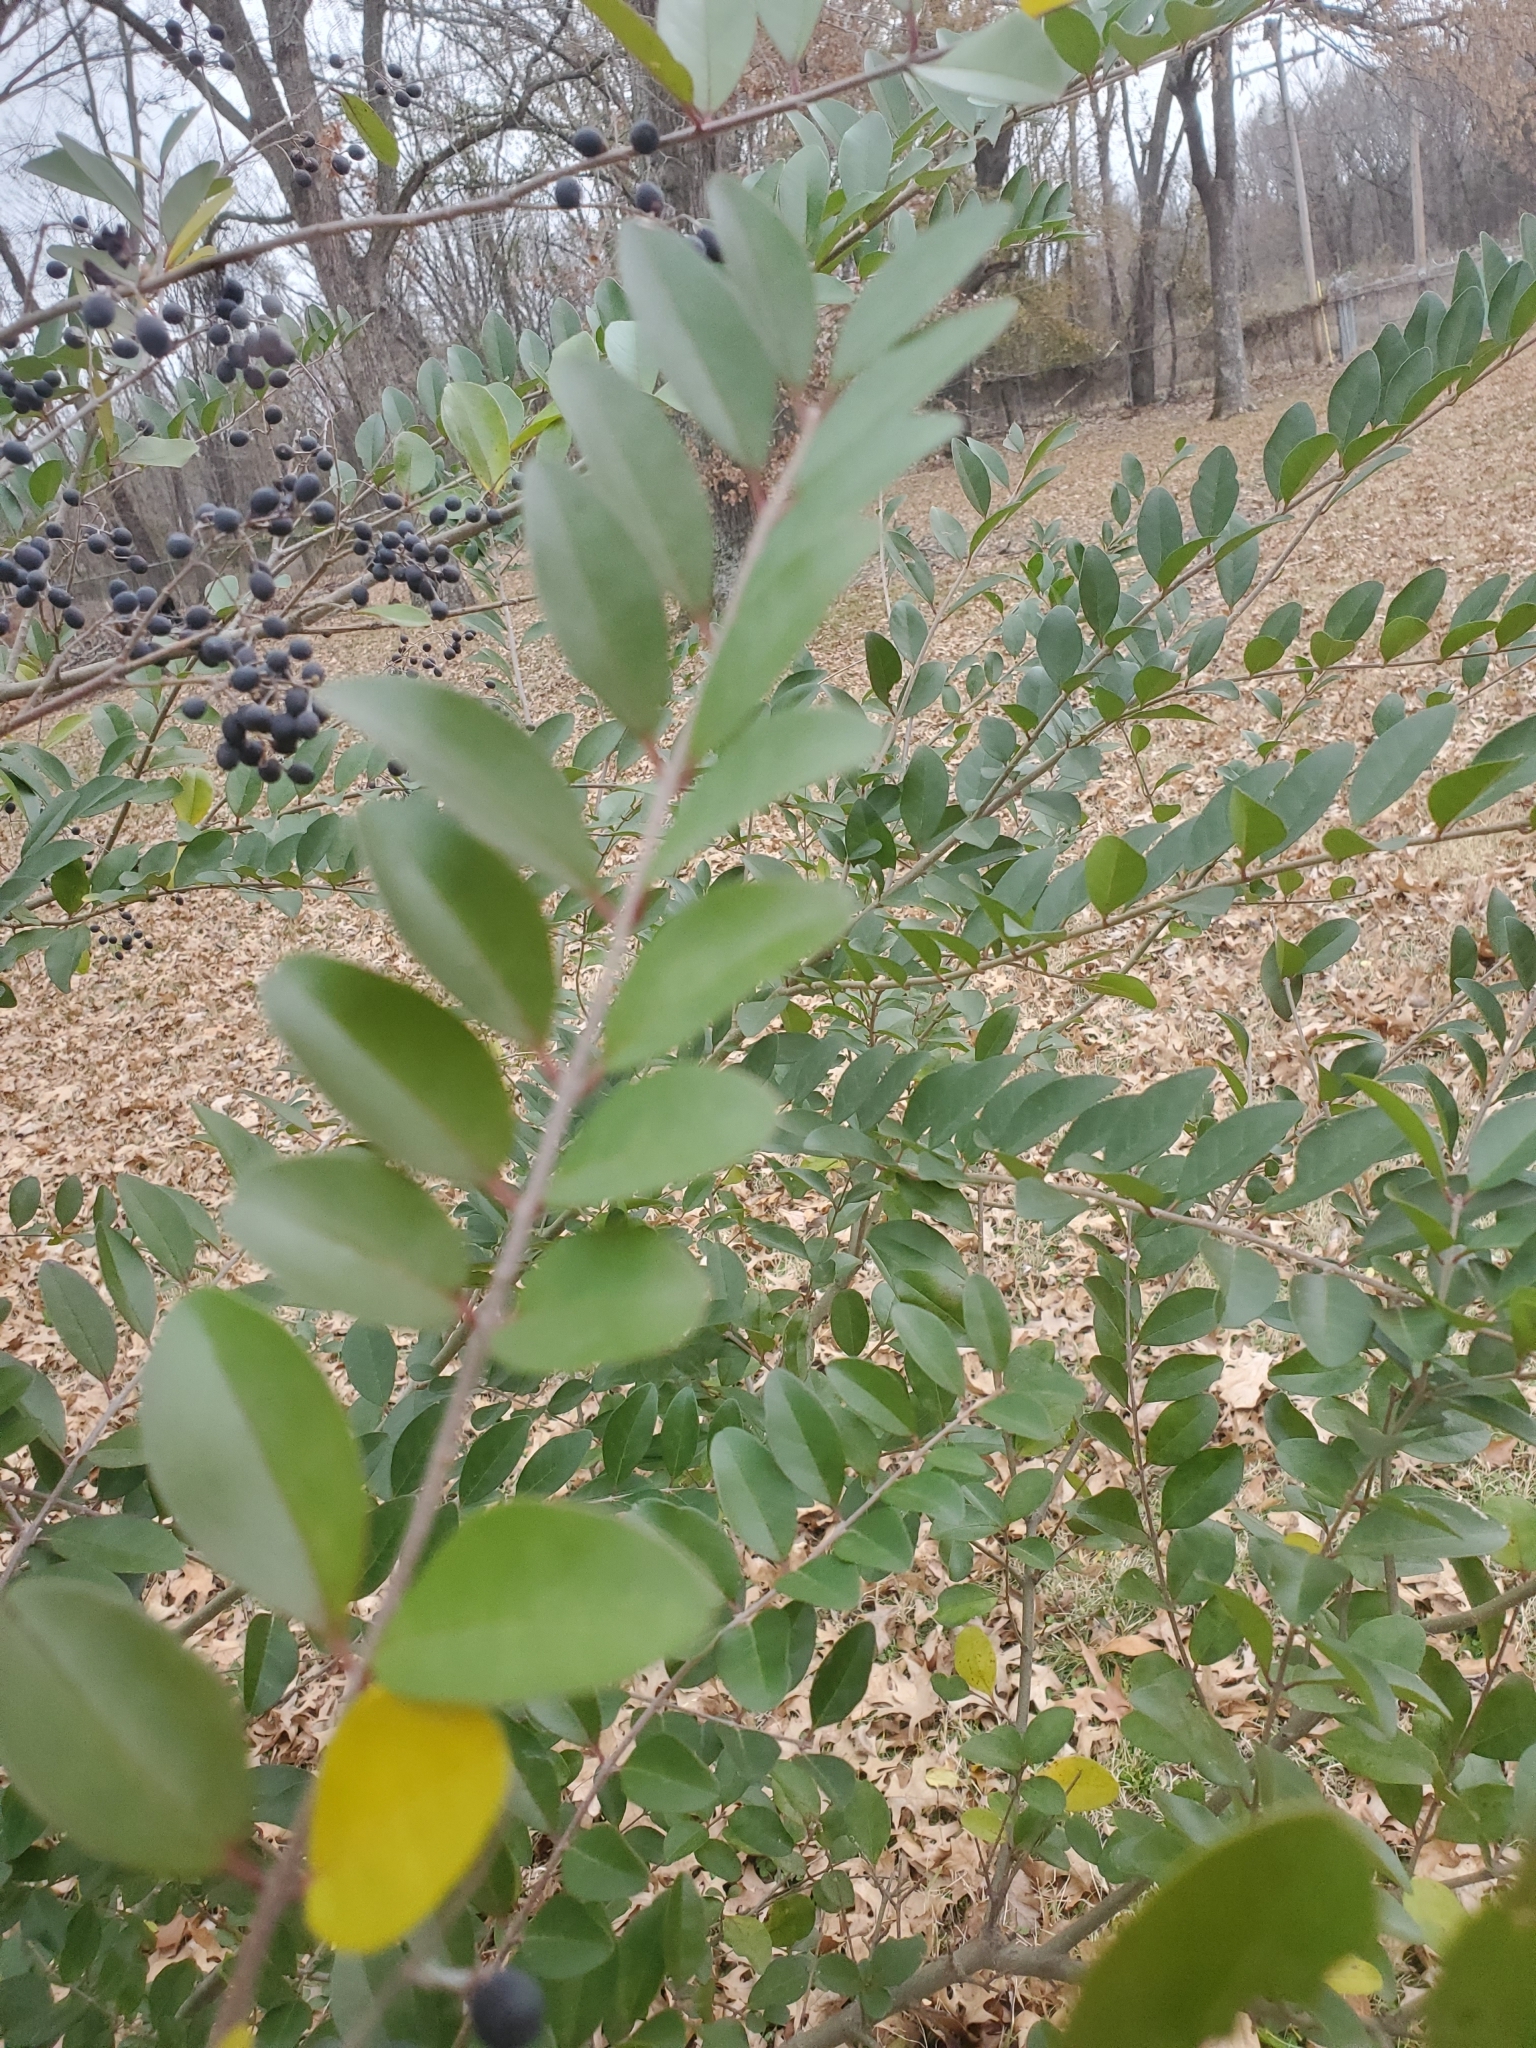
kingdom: Plantae
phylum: Tracheophyta
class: Magnoliopsida
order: Lamiales
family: Oleaceae
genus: Ligustrum
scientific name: Ligustrum sinense
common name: Chinese privet
